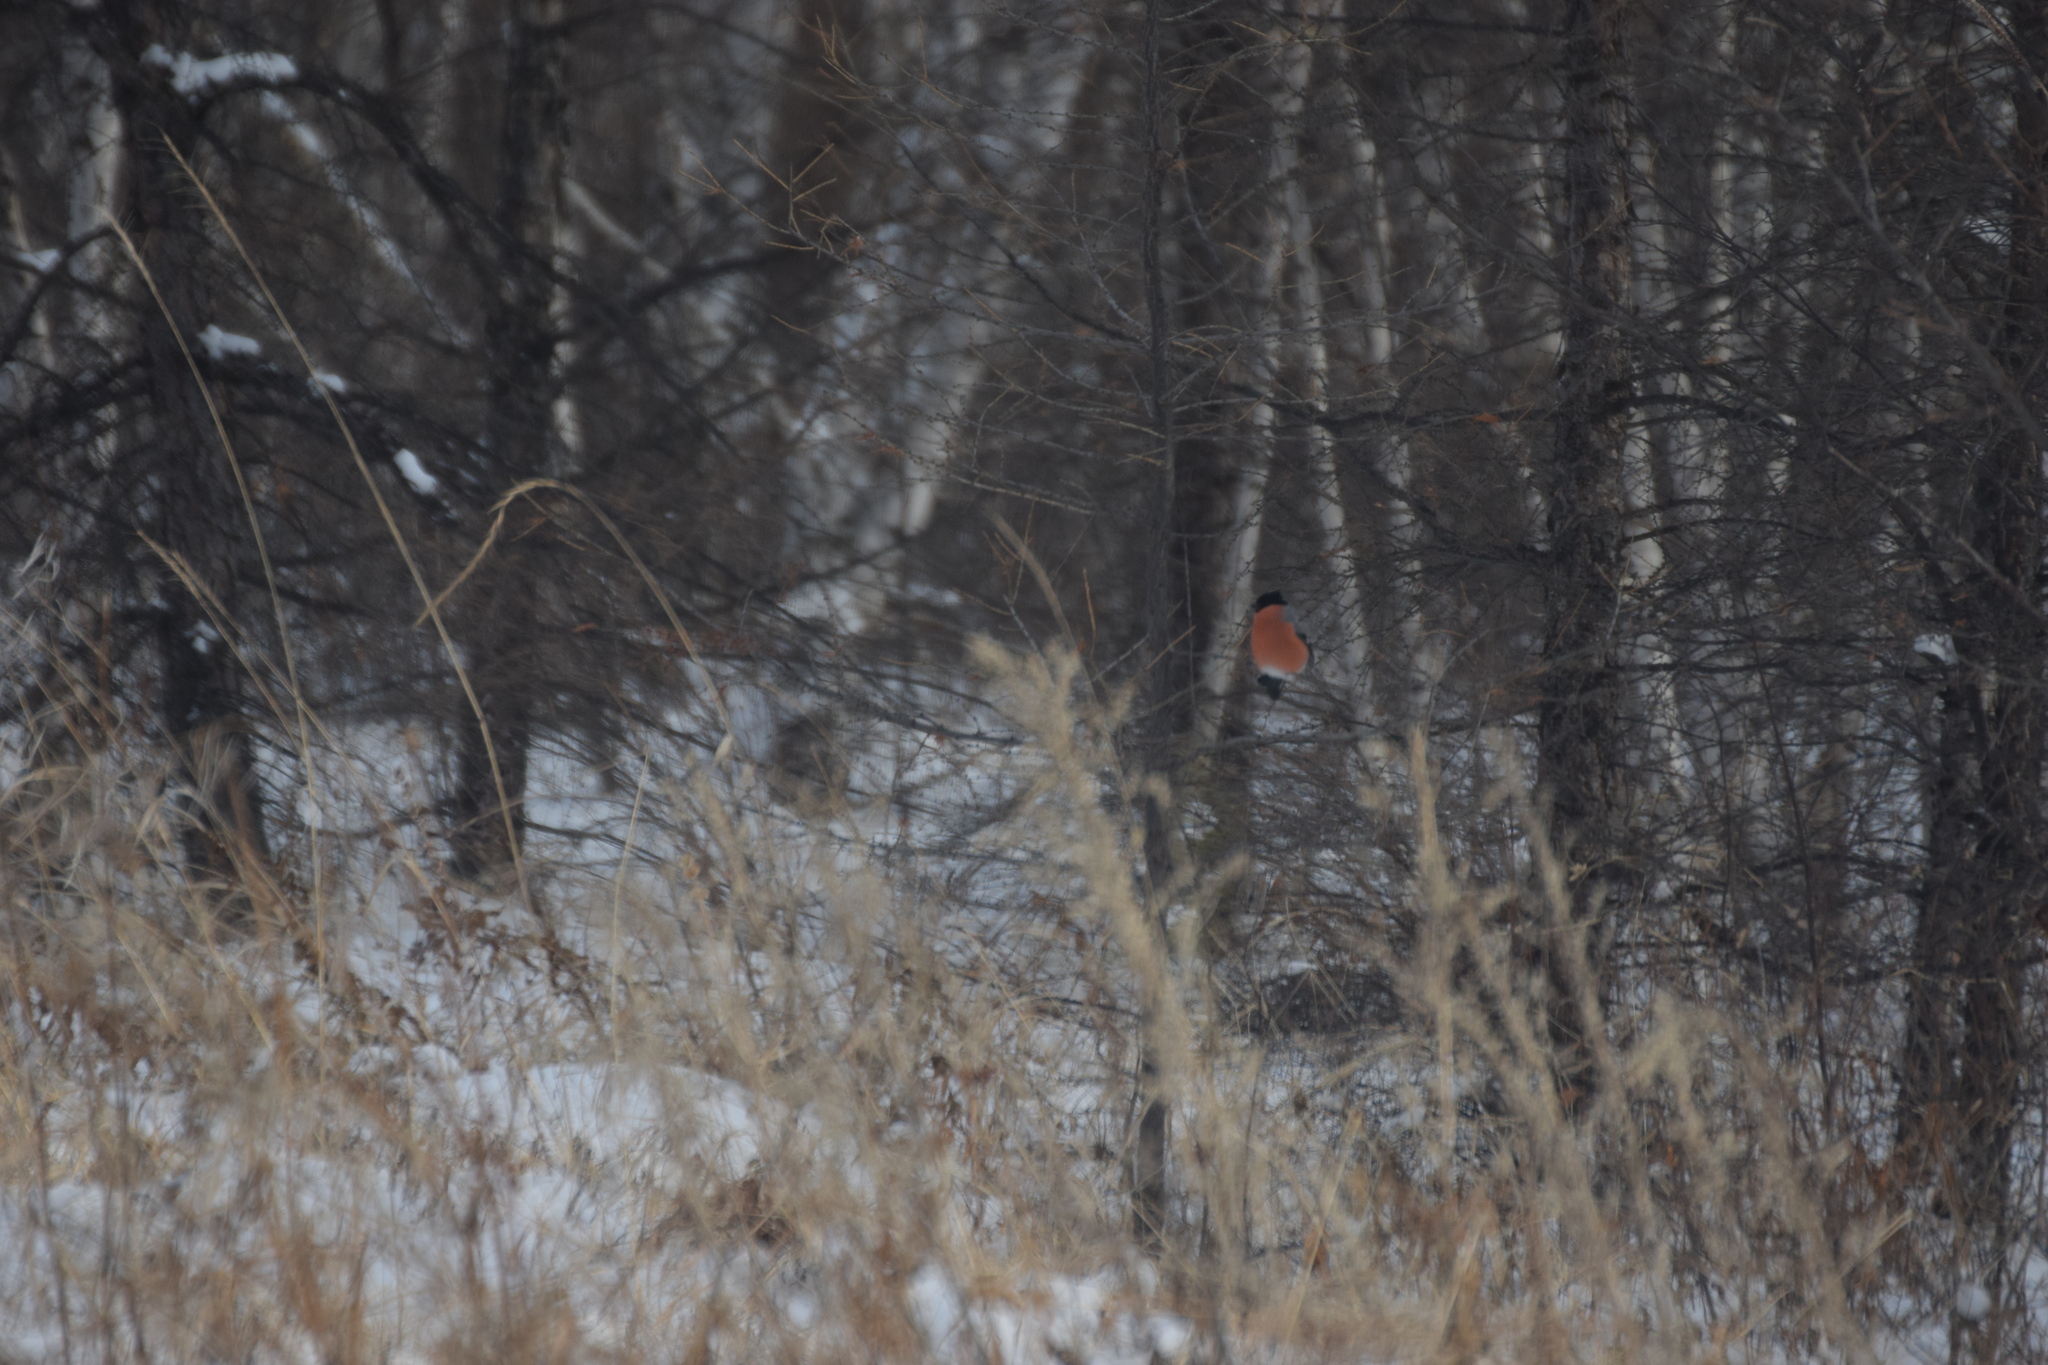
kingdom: Animalia
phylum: Chordata
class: Aves
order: Passeriformes
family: Fringillidae
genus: Pyrrhula
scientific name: Pyrrhula pyrrhula
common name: Eurasian bullfinch
